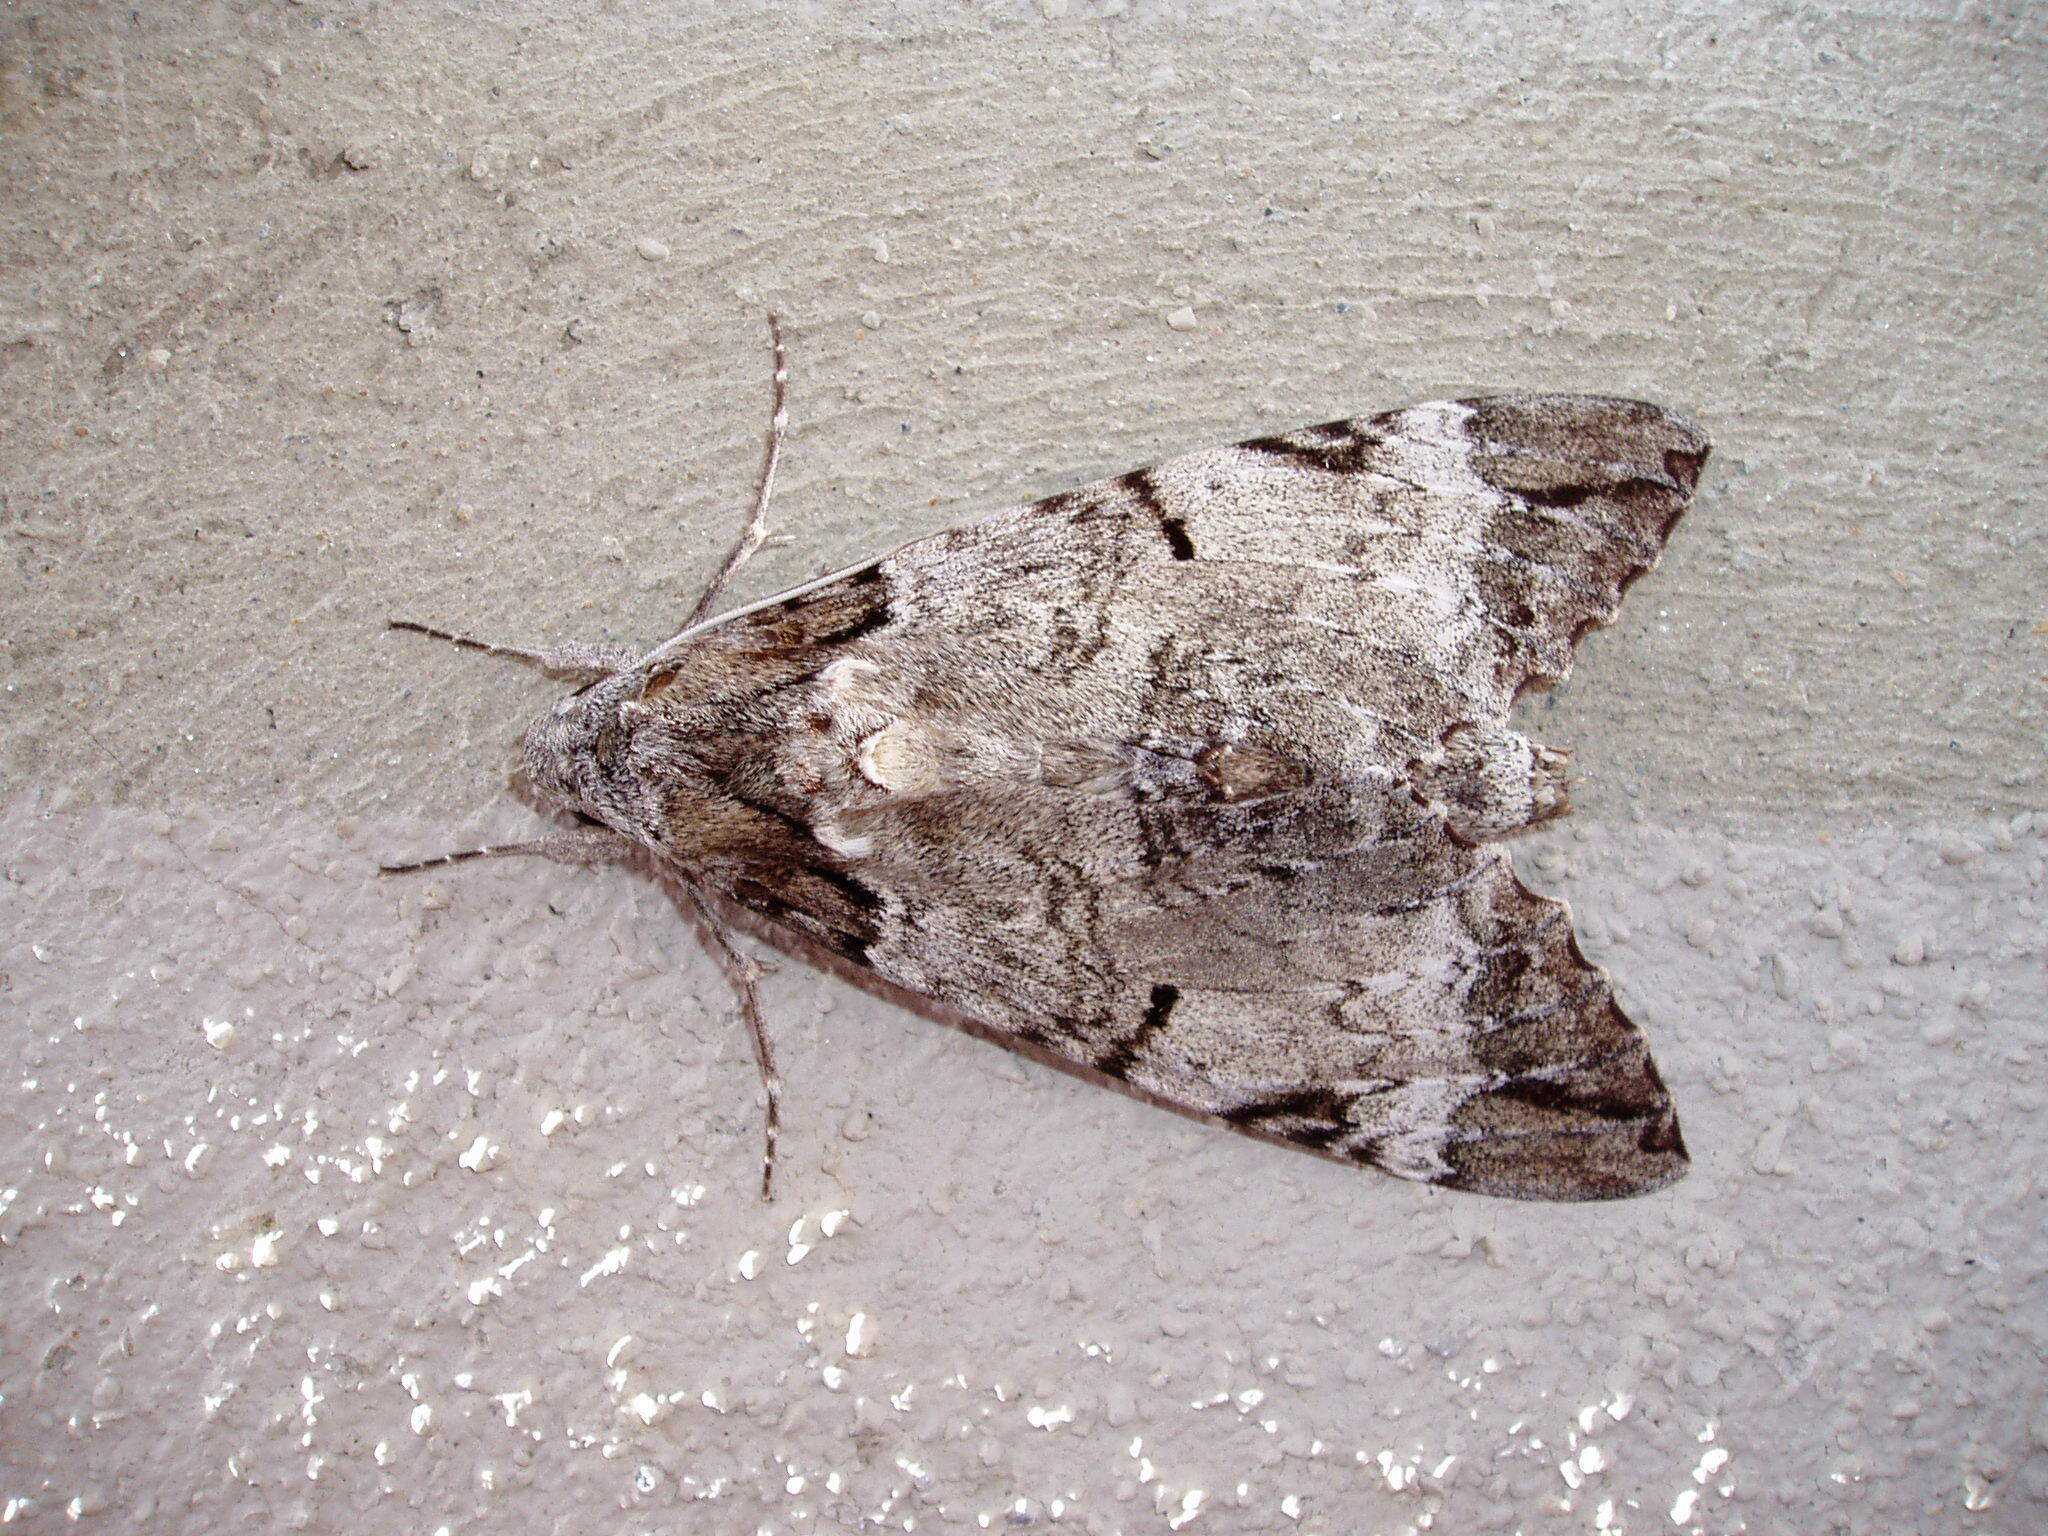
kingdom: Animalia
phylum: Arthropoda
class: Insecta
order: Lepidoptera
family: Sphingidae
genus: Pseudosphinx
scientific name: Pseudosphinx tetrio
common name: Tetrio sphinx
